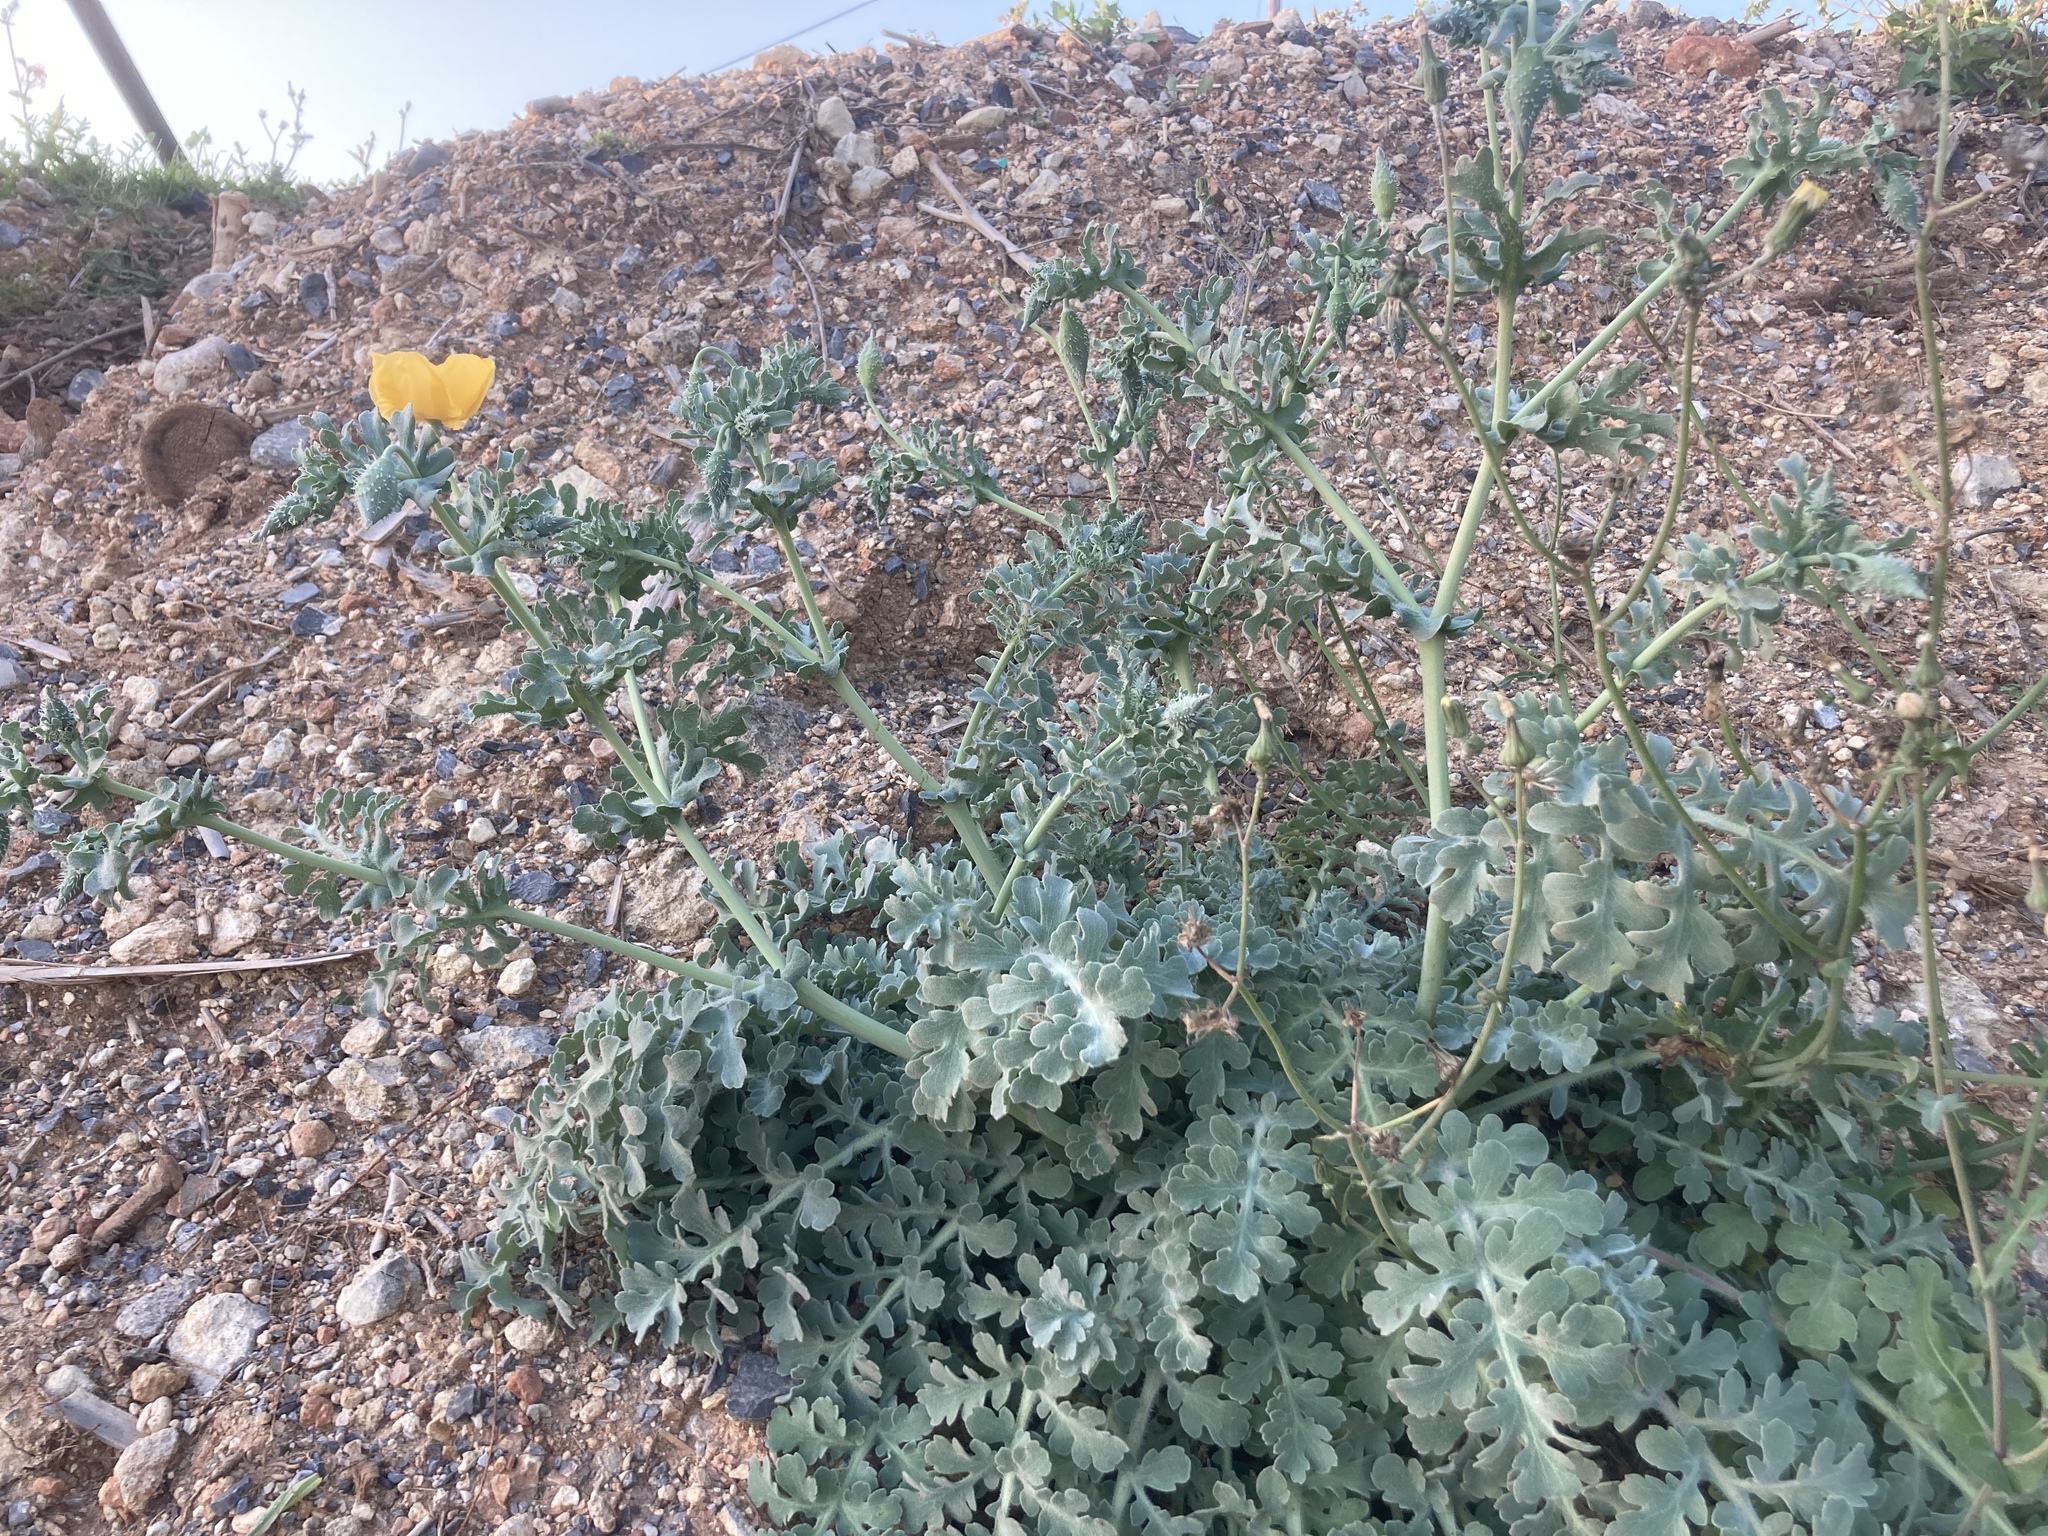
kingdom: Plantae
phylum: Tracheophyta
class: Magnoliopsida
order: Ranunculales
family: Papaveraceae
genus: Glaucium
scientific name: Glaucium flavum
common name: Yellow horned-poppy
